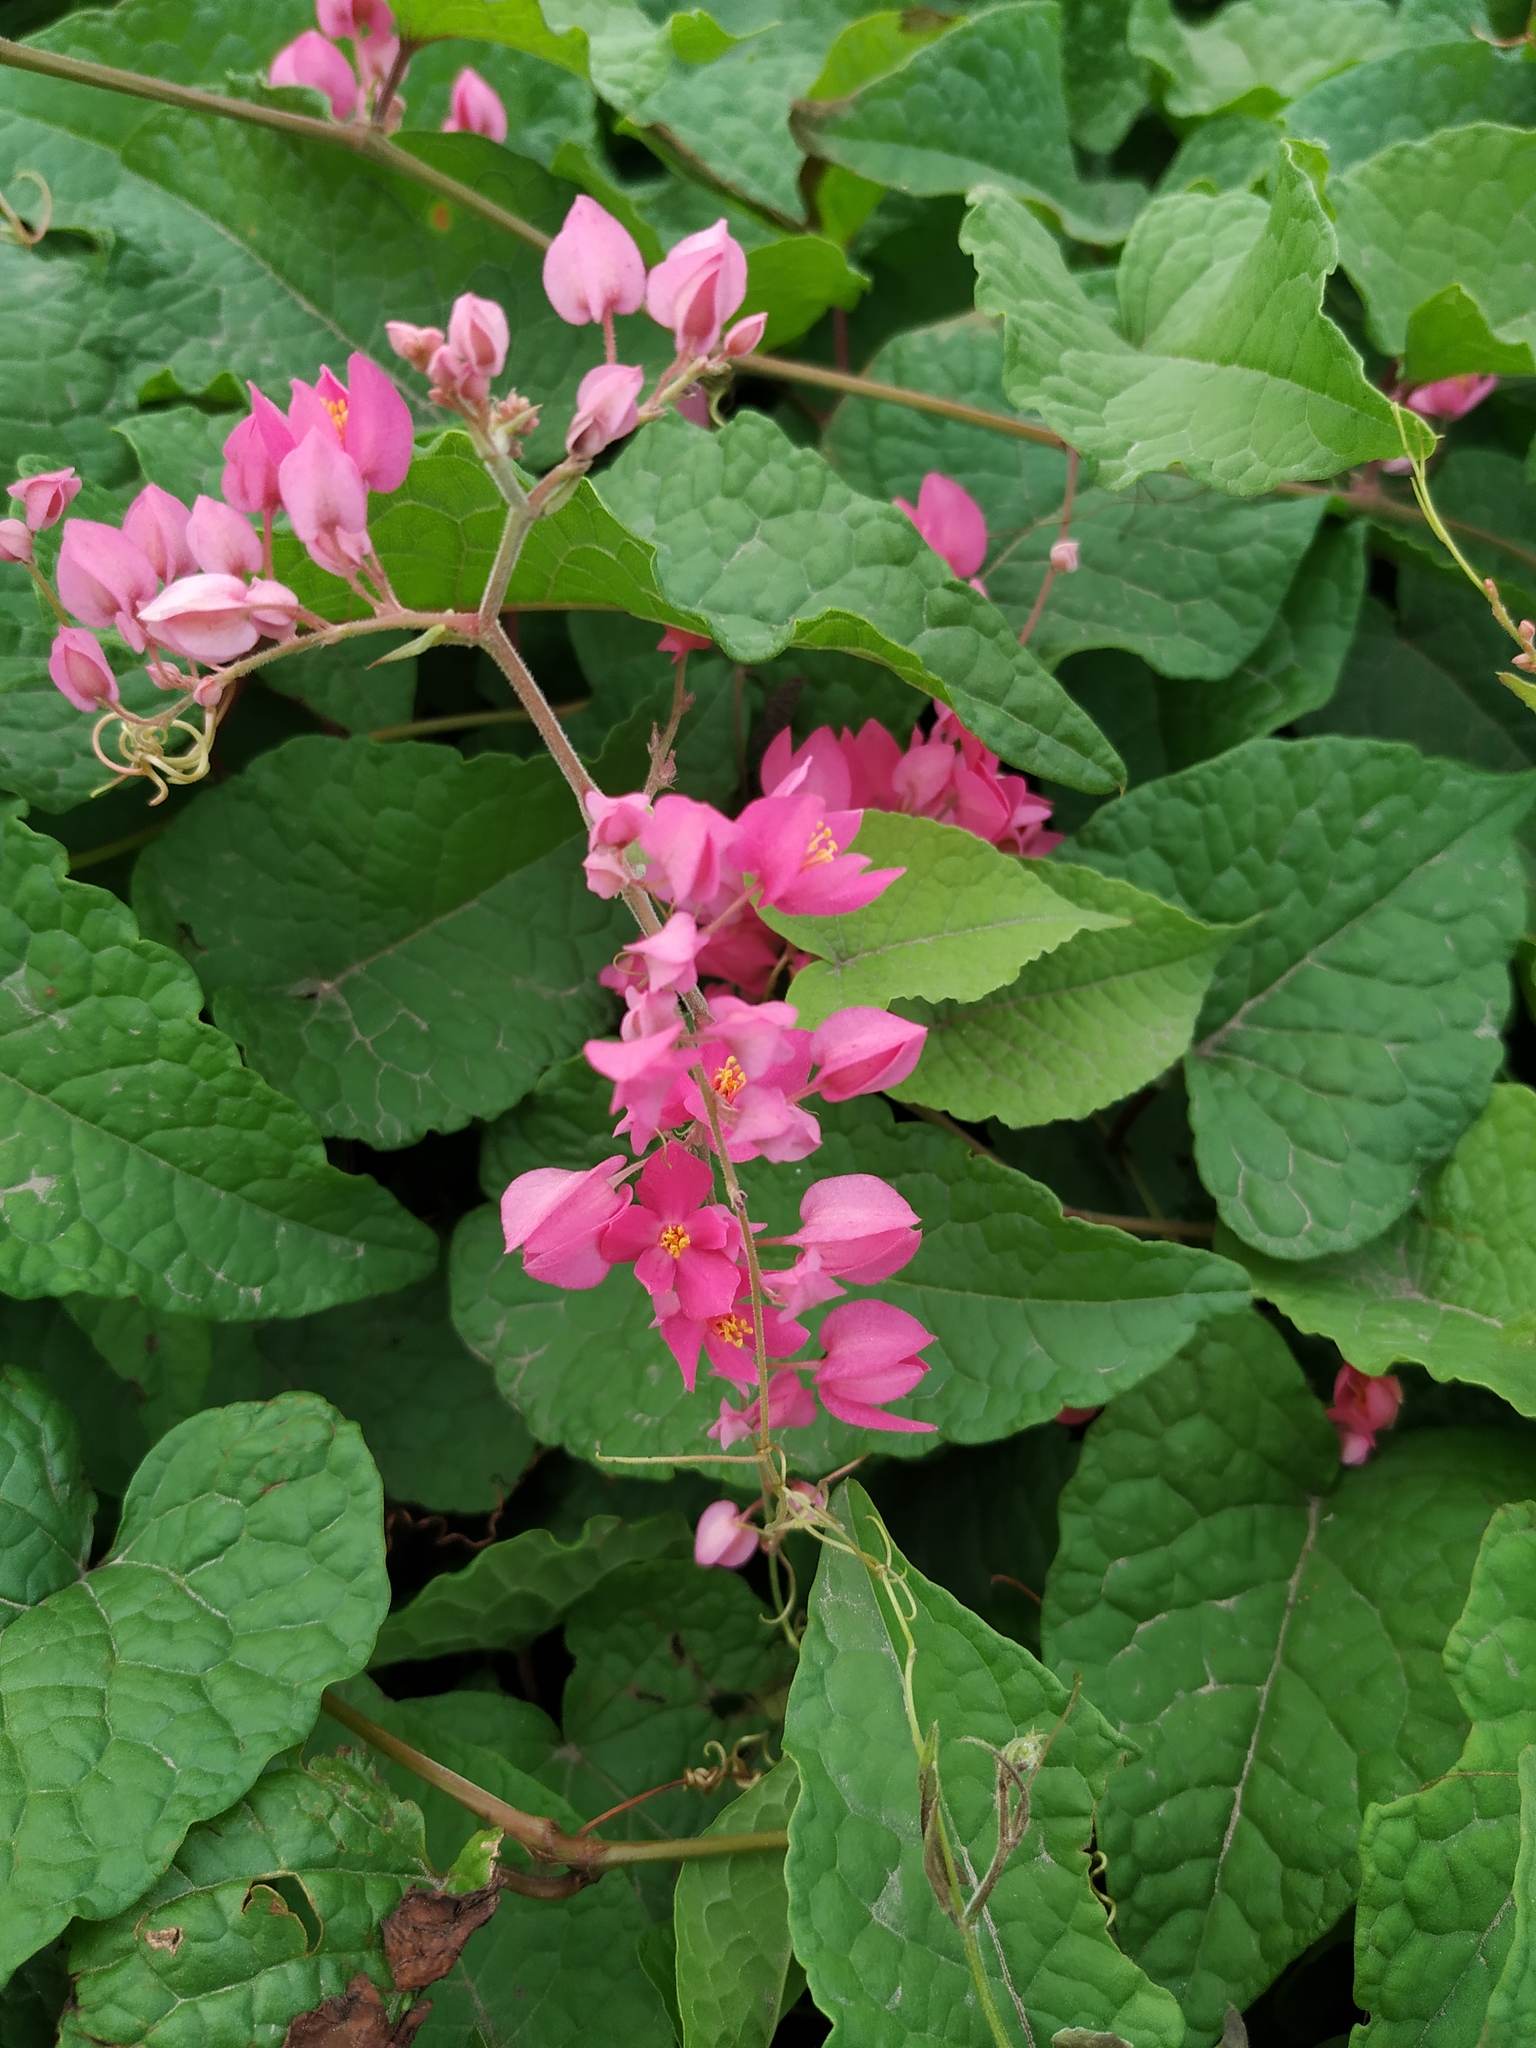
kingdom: Plantae
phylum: Tracheophyta
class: Magnoliopsida
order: Caryophyllales
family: Polygonaceae
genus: Antigonon
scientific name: Antigonon leptopus
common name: Coral vine
